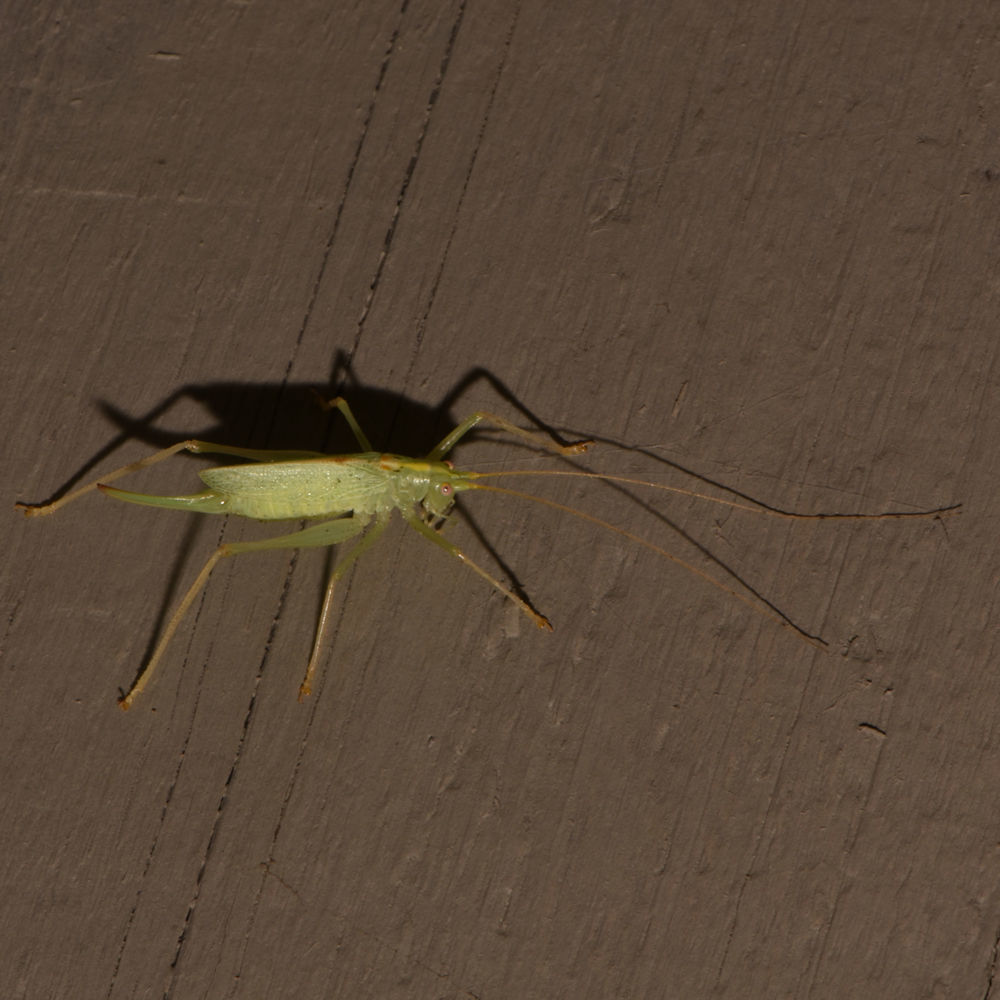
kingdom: Animalia
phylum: Arthropoda
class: Insecta
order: Orthoptera
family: Tettigoniidae
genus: Meconema
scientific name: Meconema thalassinum
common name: Oak bush-cricket
